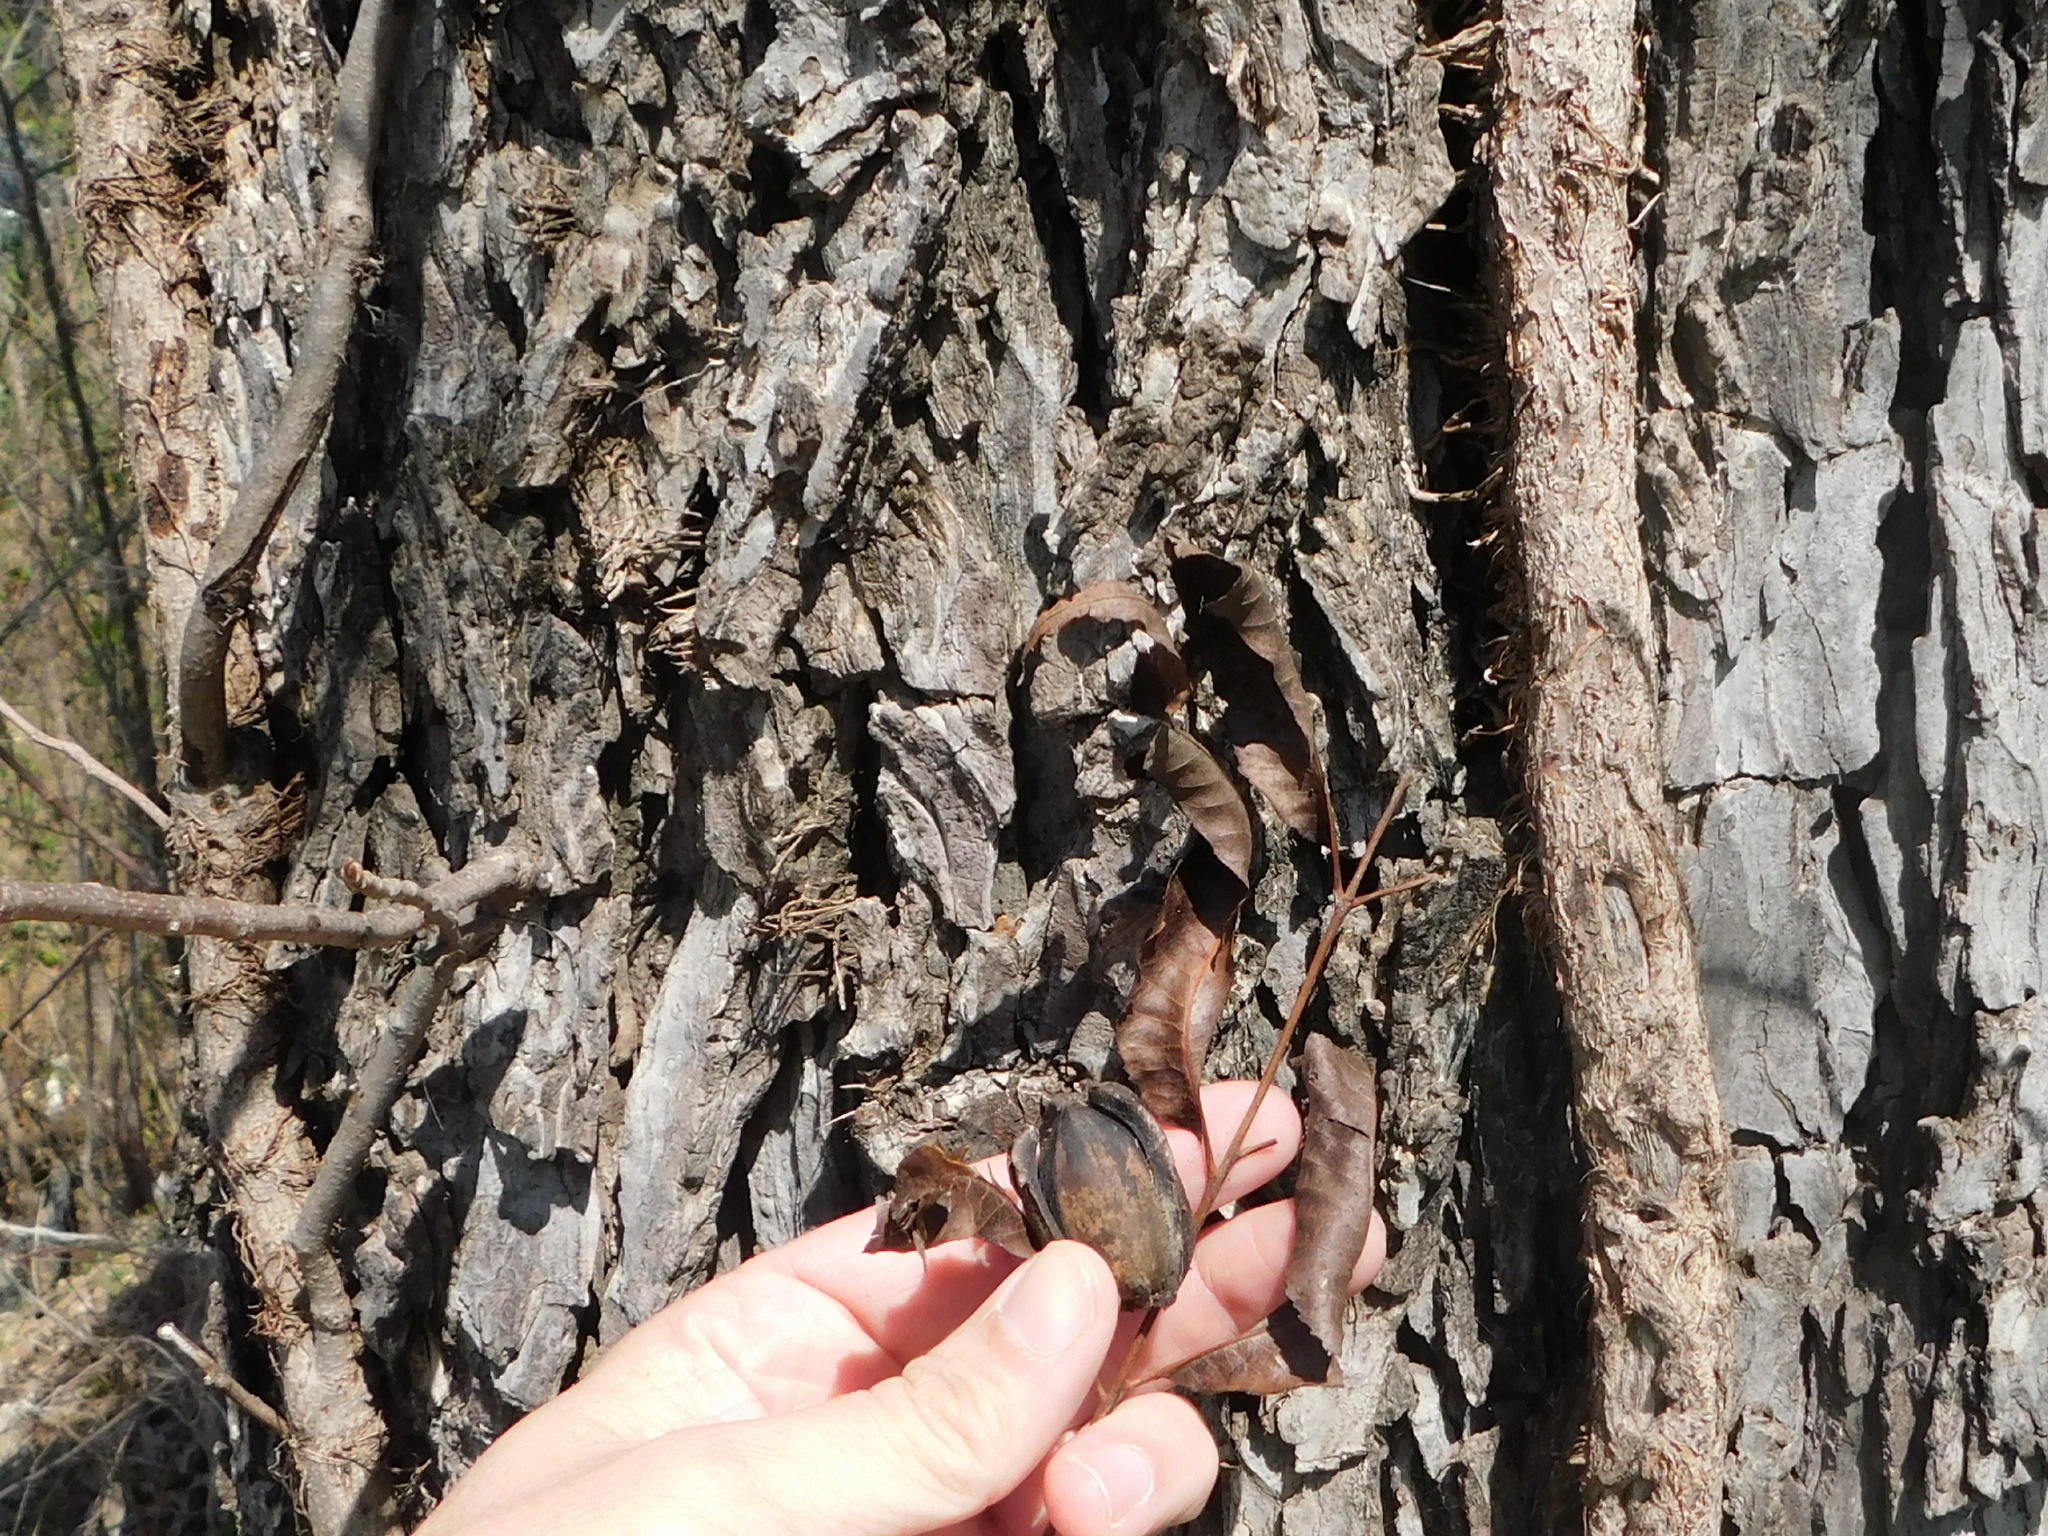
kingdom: Plantae
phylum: Tracheophyta
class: Magnoliopsida
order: Fagales
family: Juglandaceae
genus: Carya
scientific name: Carya illinoinensis
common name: Pecan
